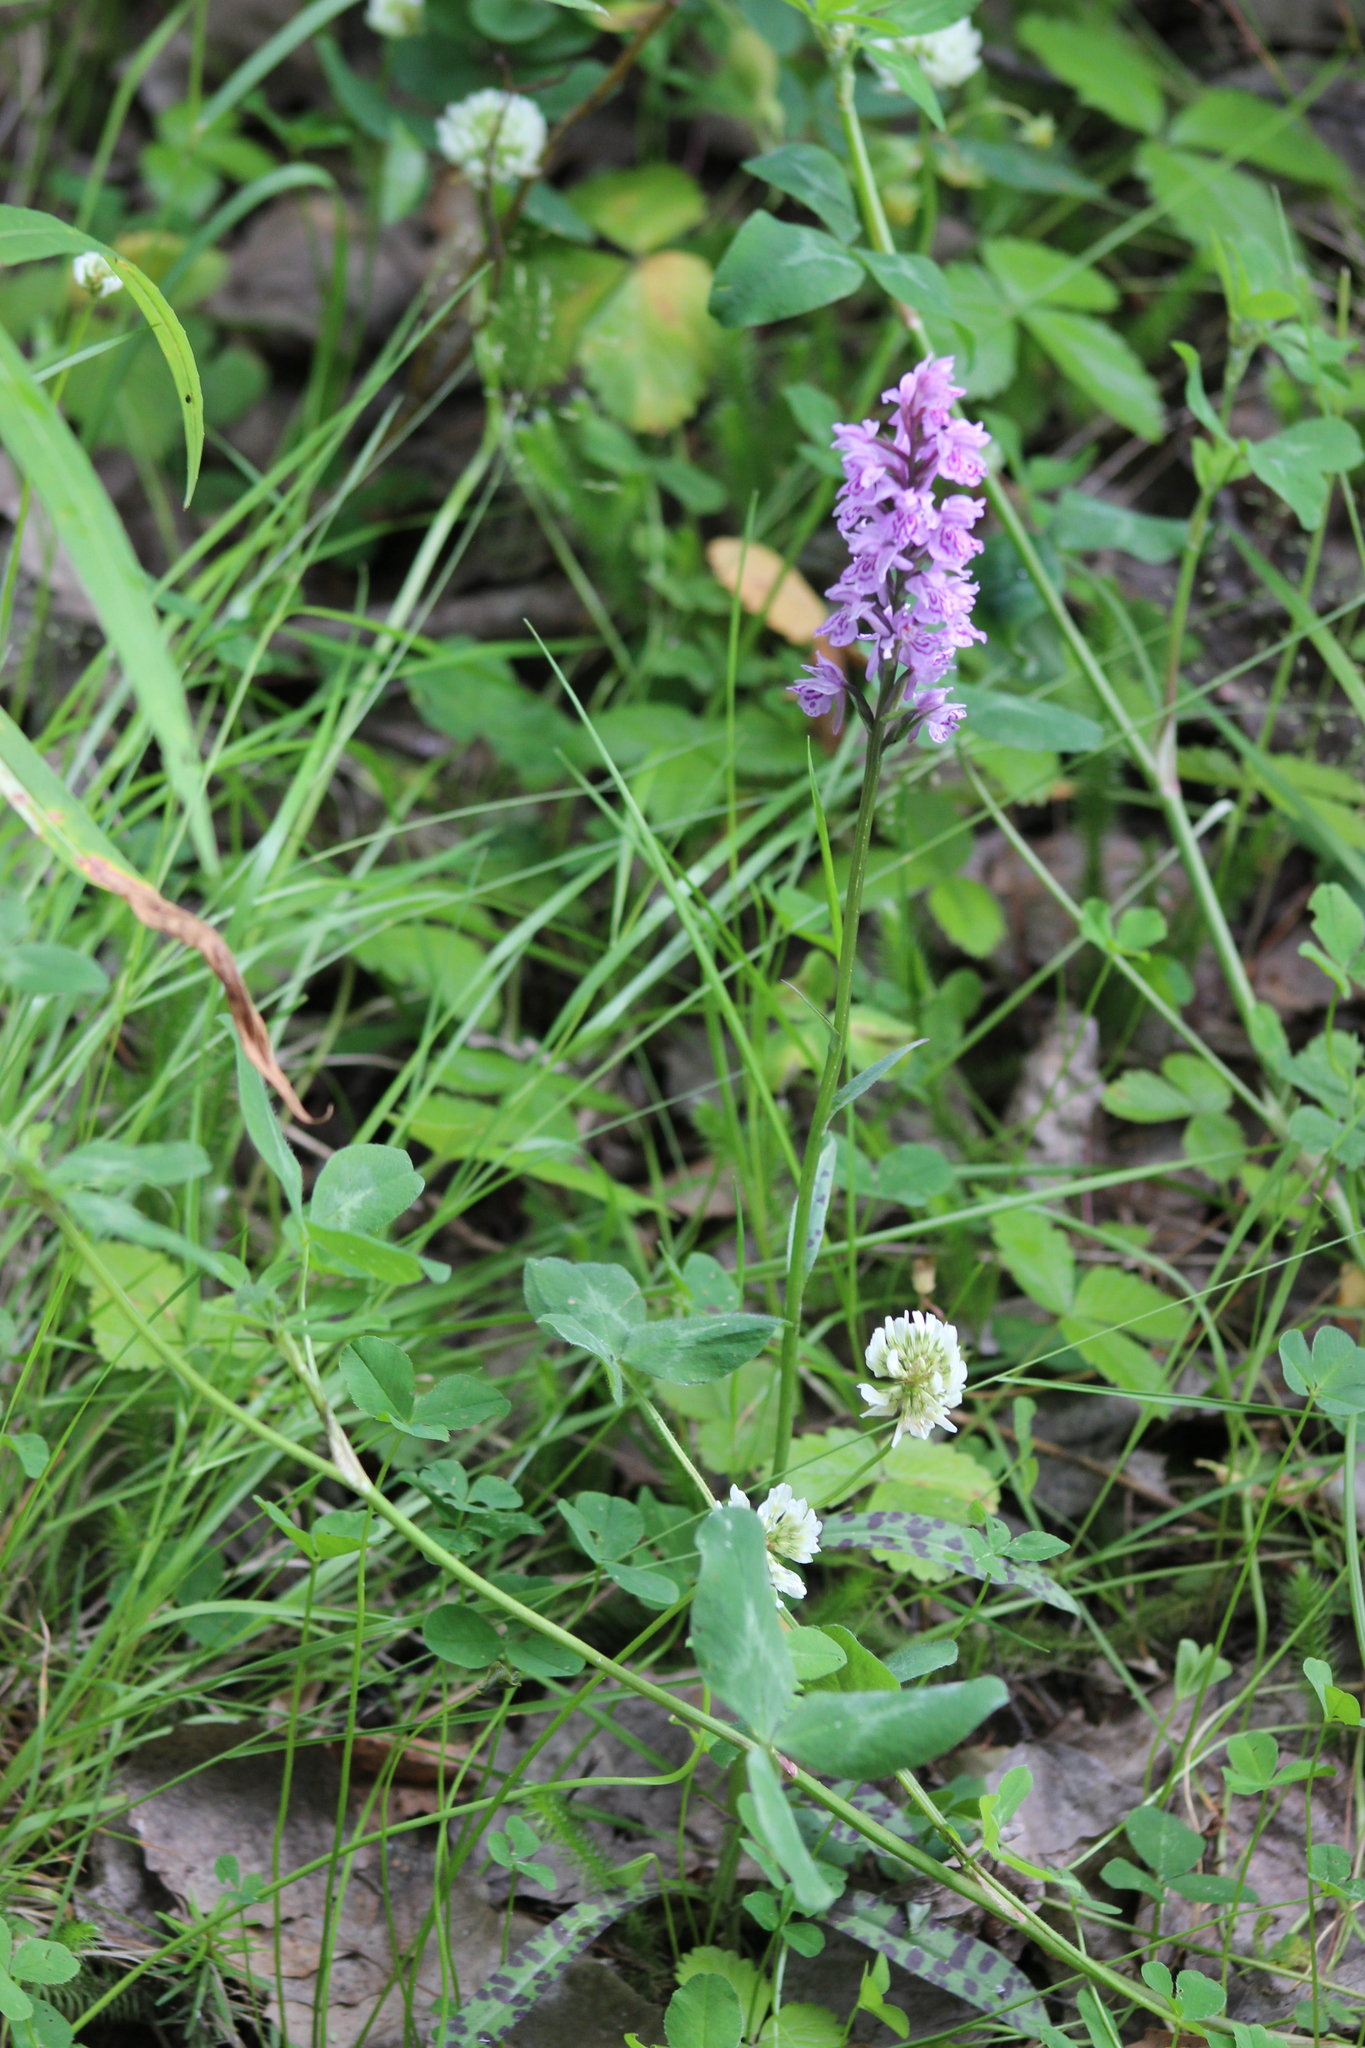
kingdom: Plantae
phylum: Tracheophyta
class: Liliopsida
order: Asparagales
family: Orchidaceae
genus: Dactylorhiza
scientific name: Dactylorhiza maculata
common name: Heath spotted-orchid
